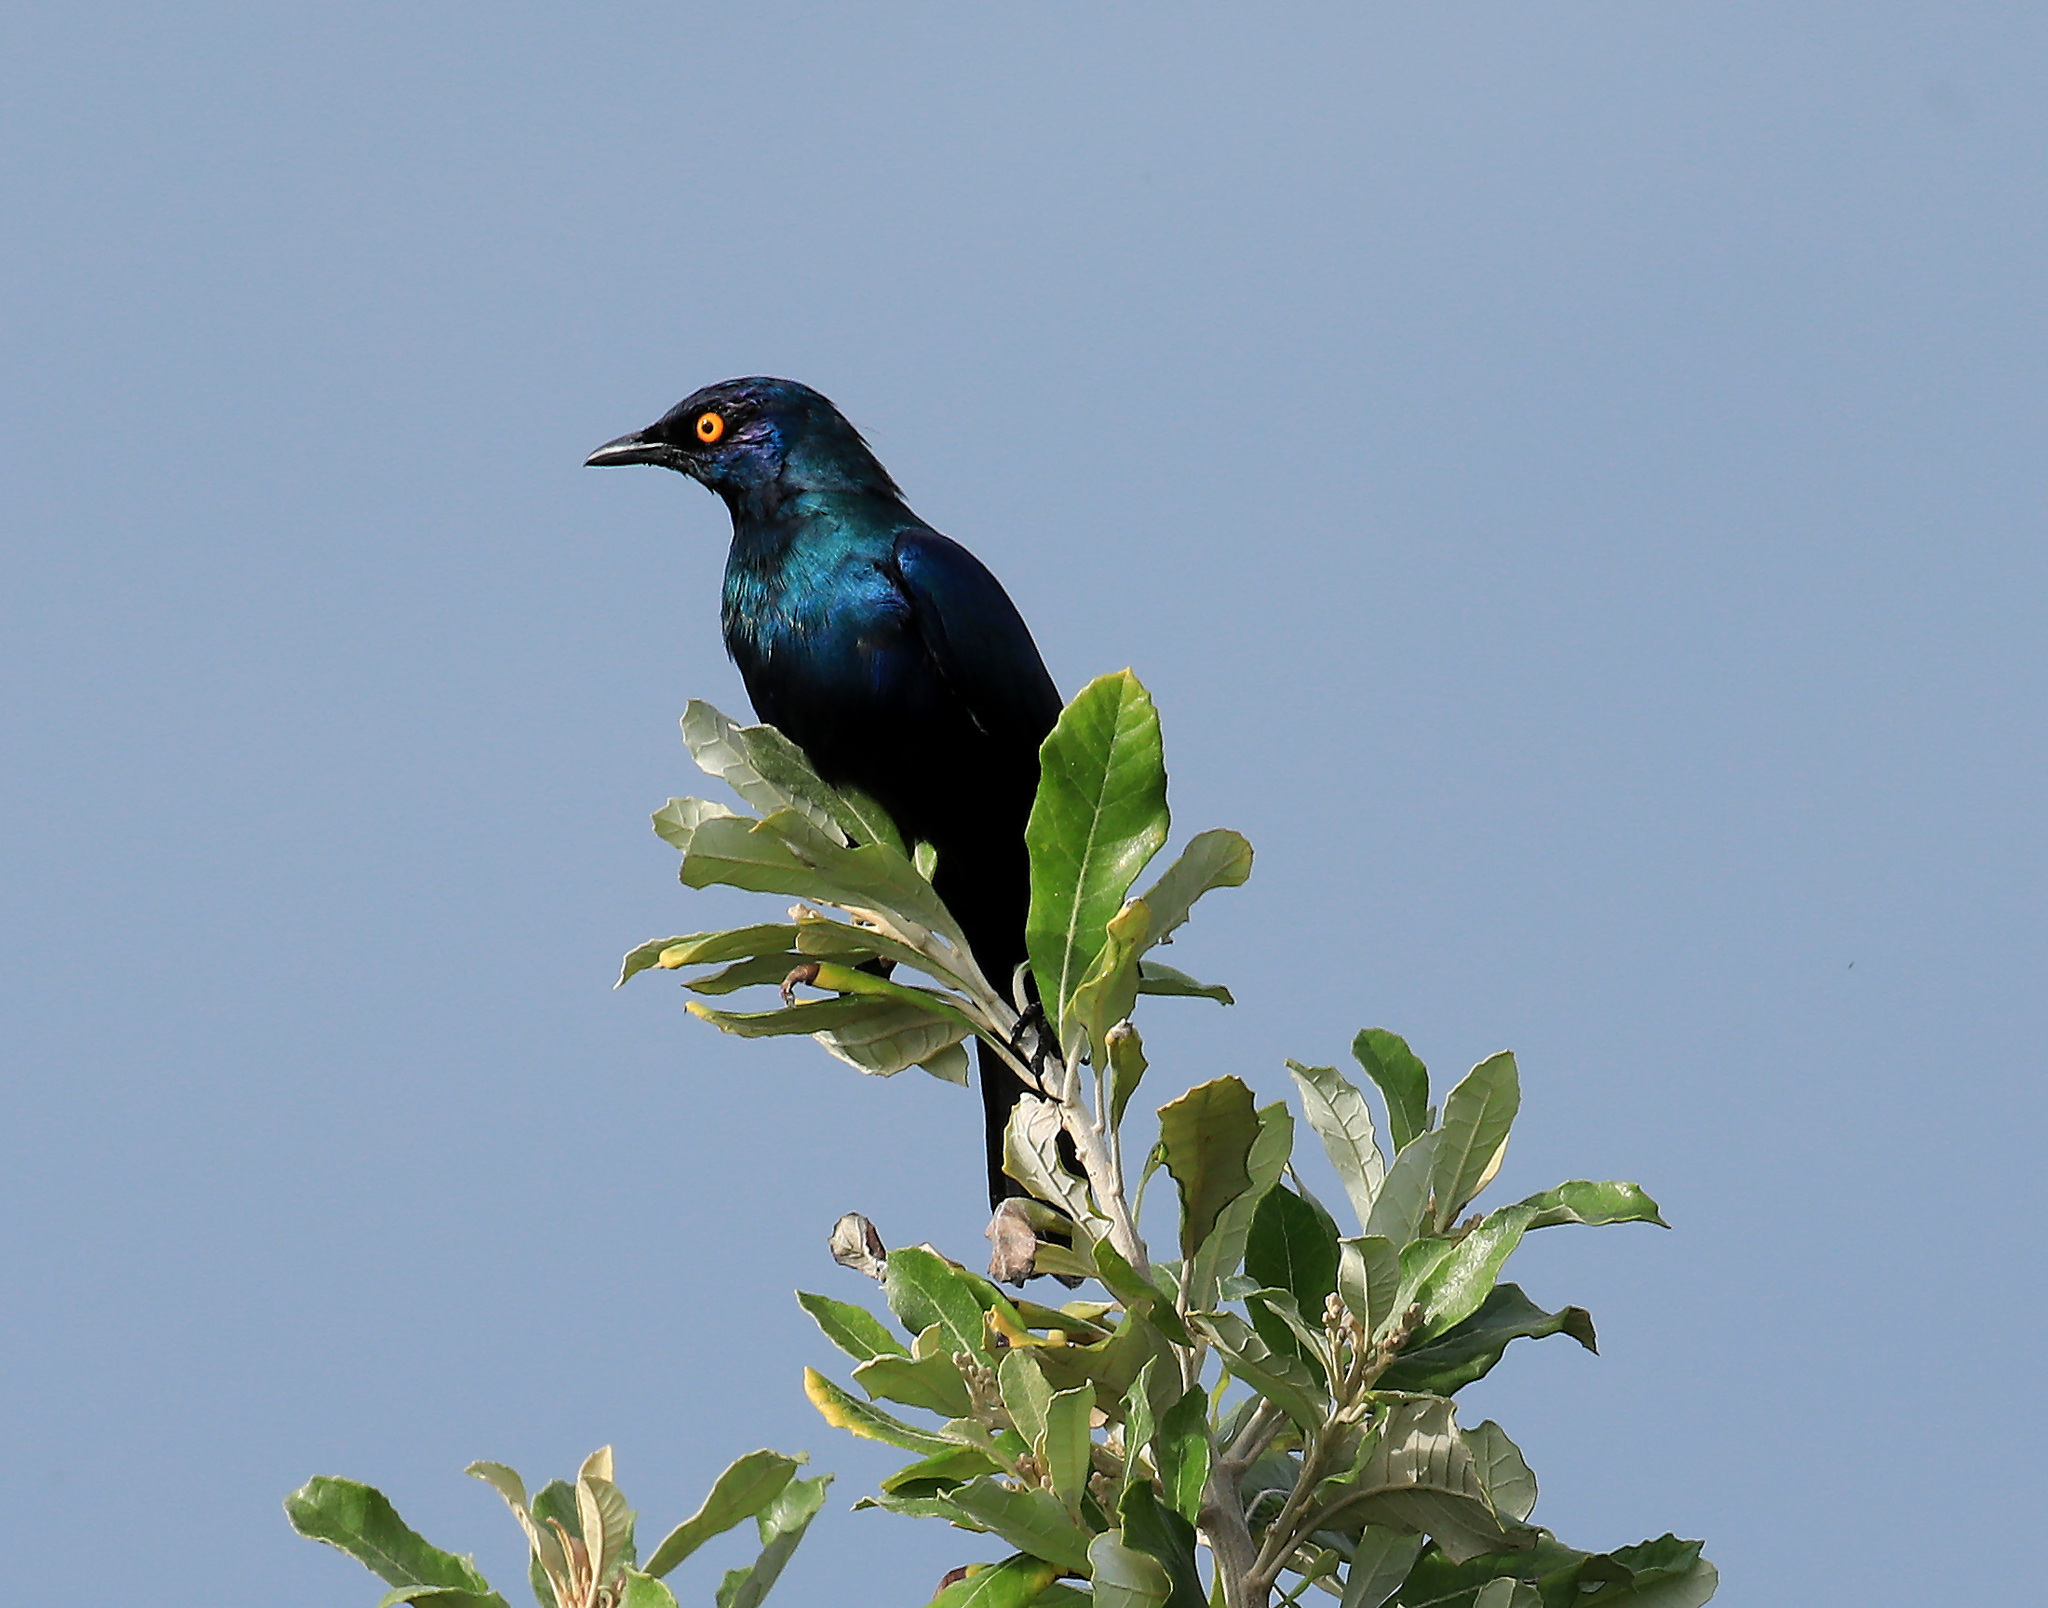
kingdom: Animalia
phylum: Chordata
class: Aves
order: Passeriformes
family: Sturnidae
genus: Notopholia
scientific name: Notopholia corrusca
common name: Black-bellied starling
